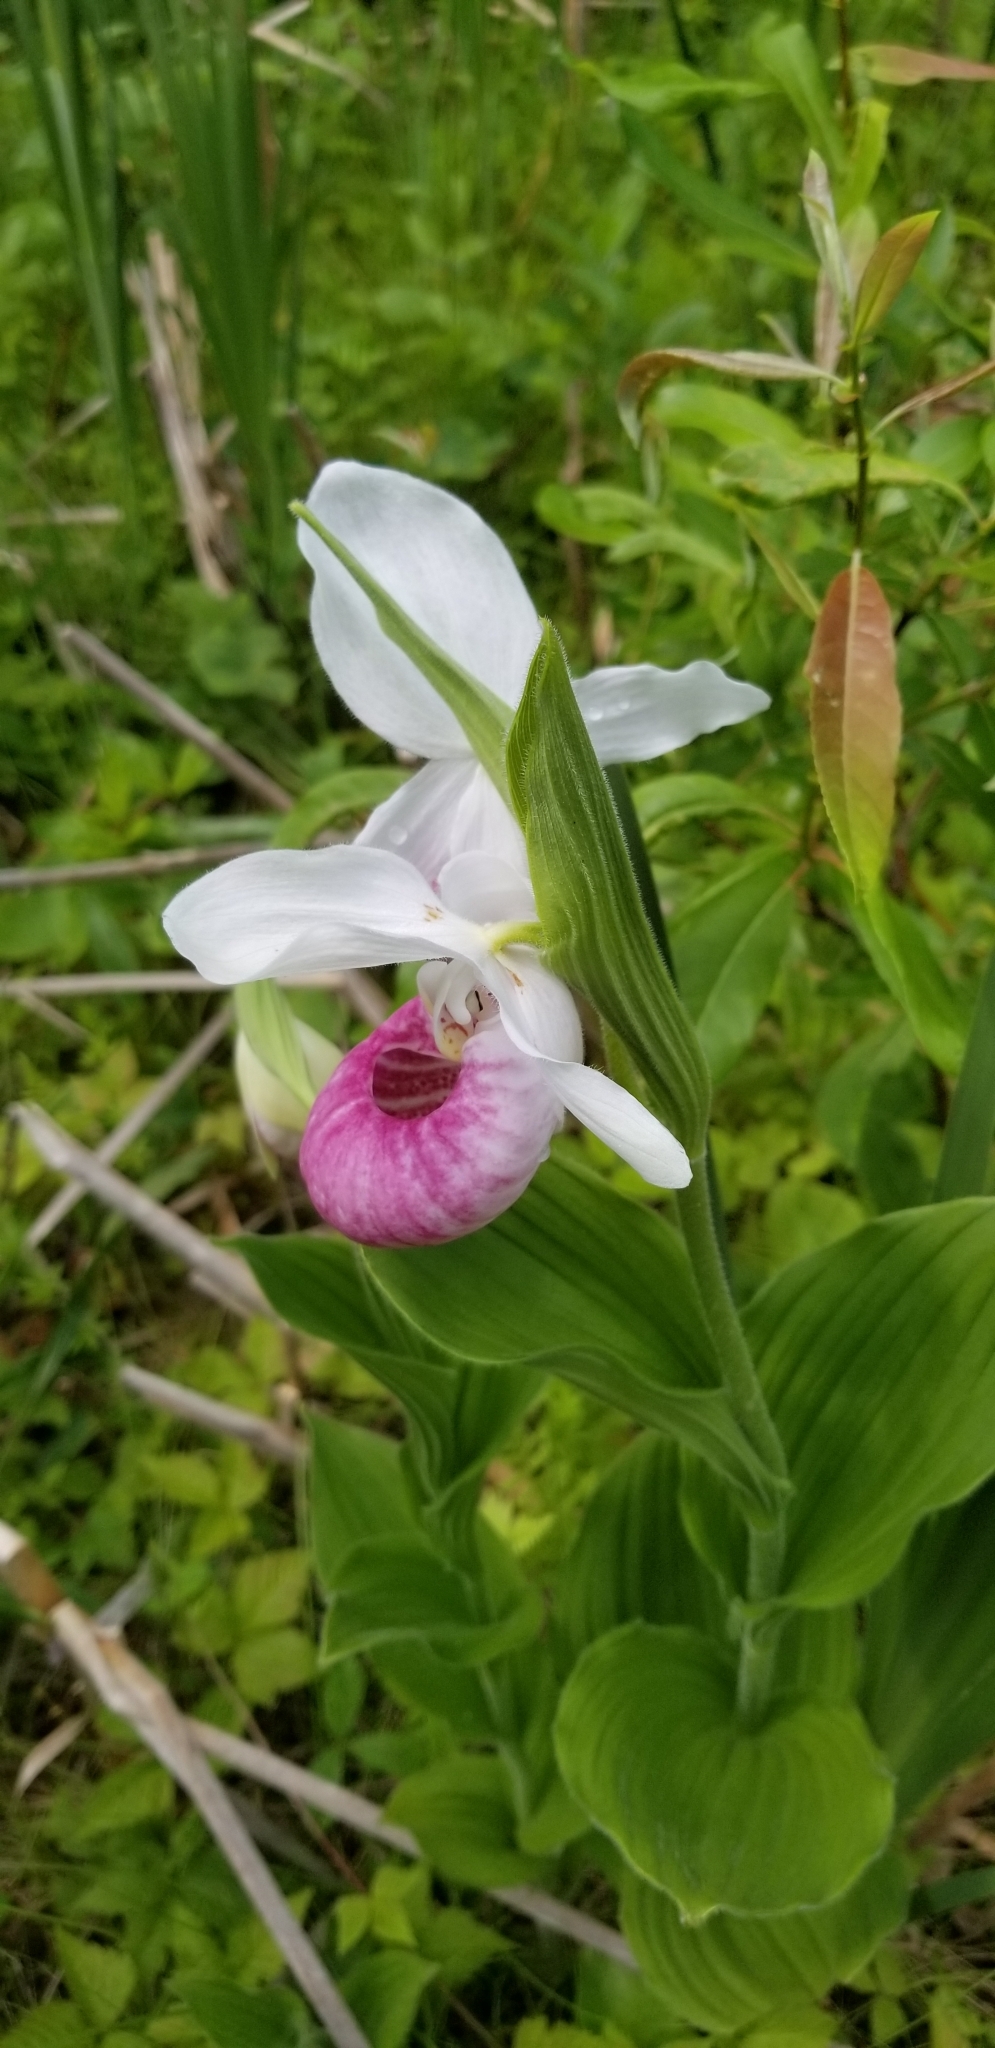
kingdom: Plantae
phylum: Tracheophyta
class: Liliopsida
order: Asparagales
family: Orchidaceae
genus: Cypripedium
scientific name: Cypripedium reginae
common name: Queen lady's-slipper
